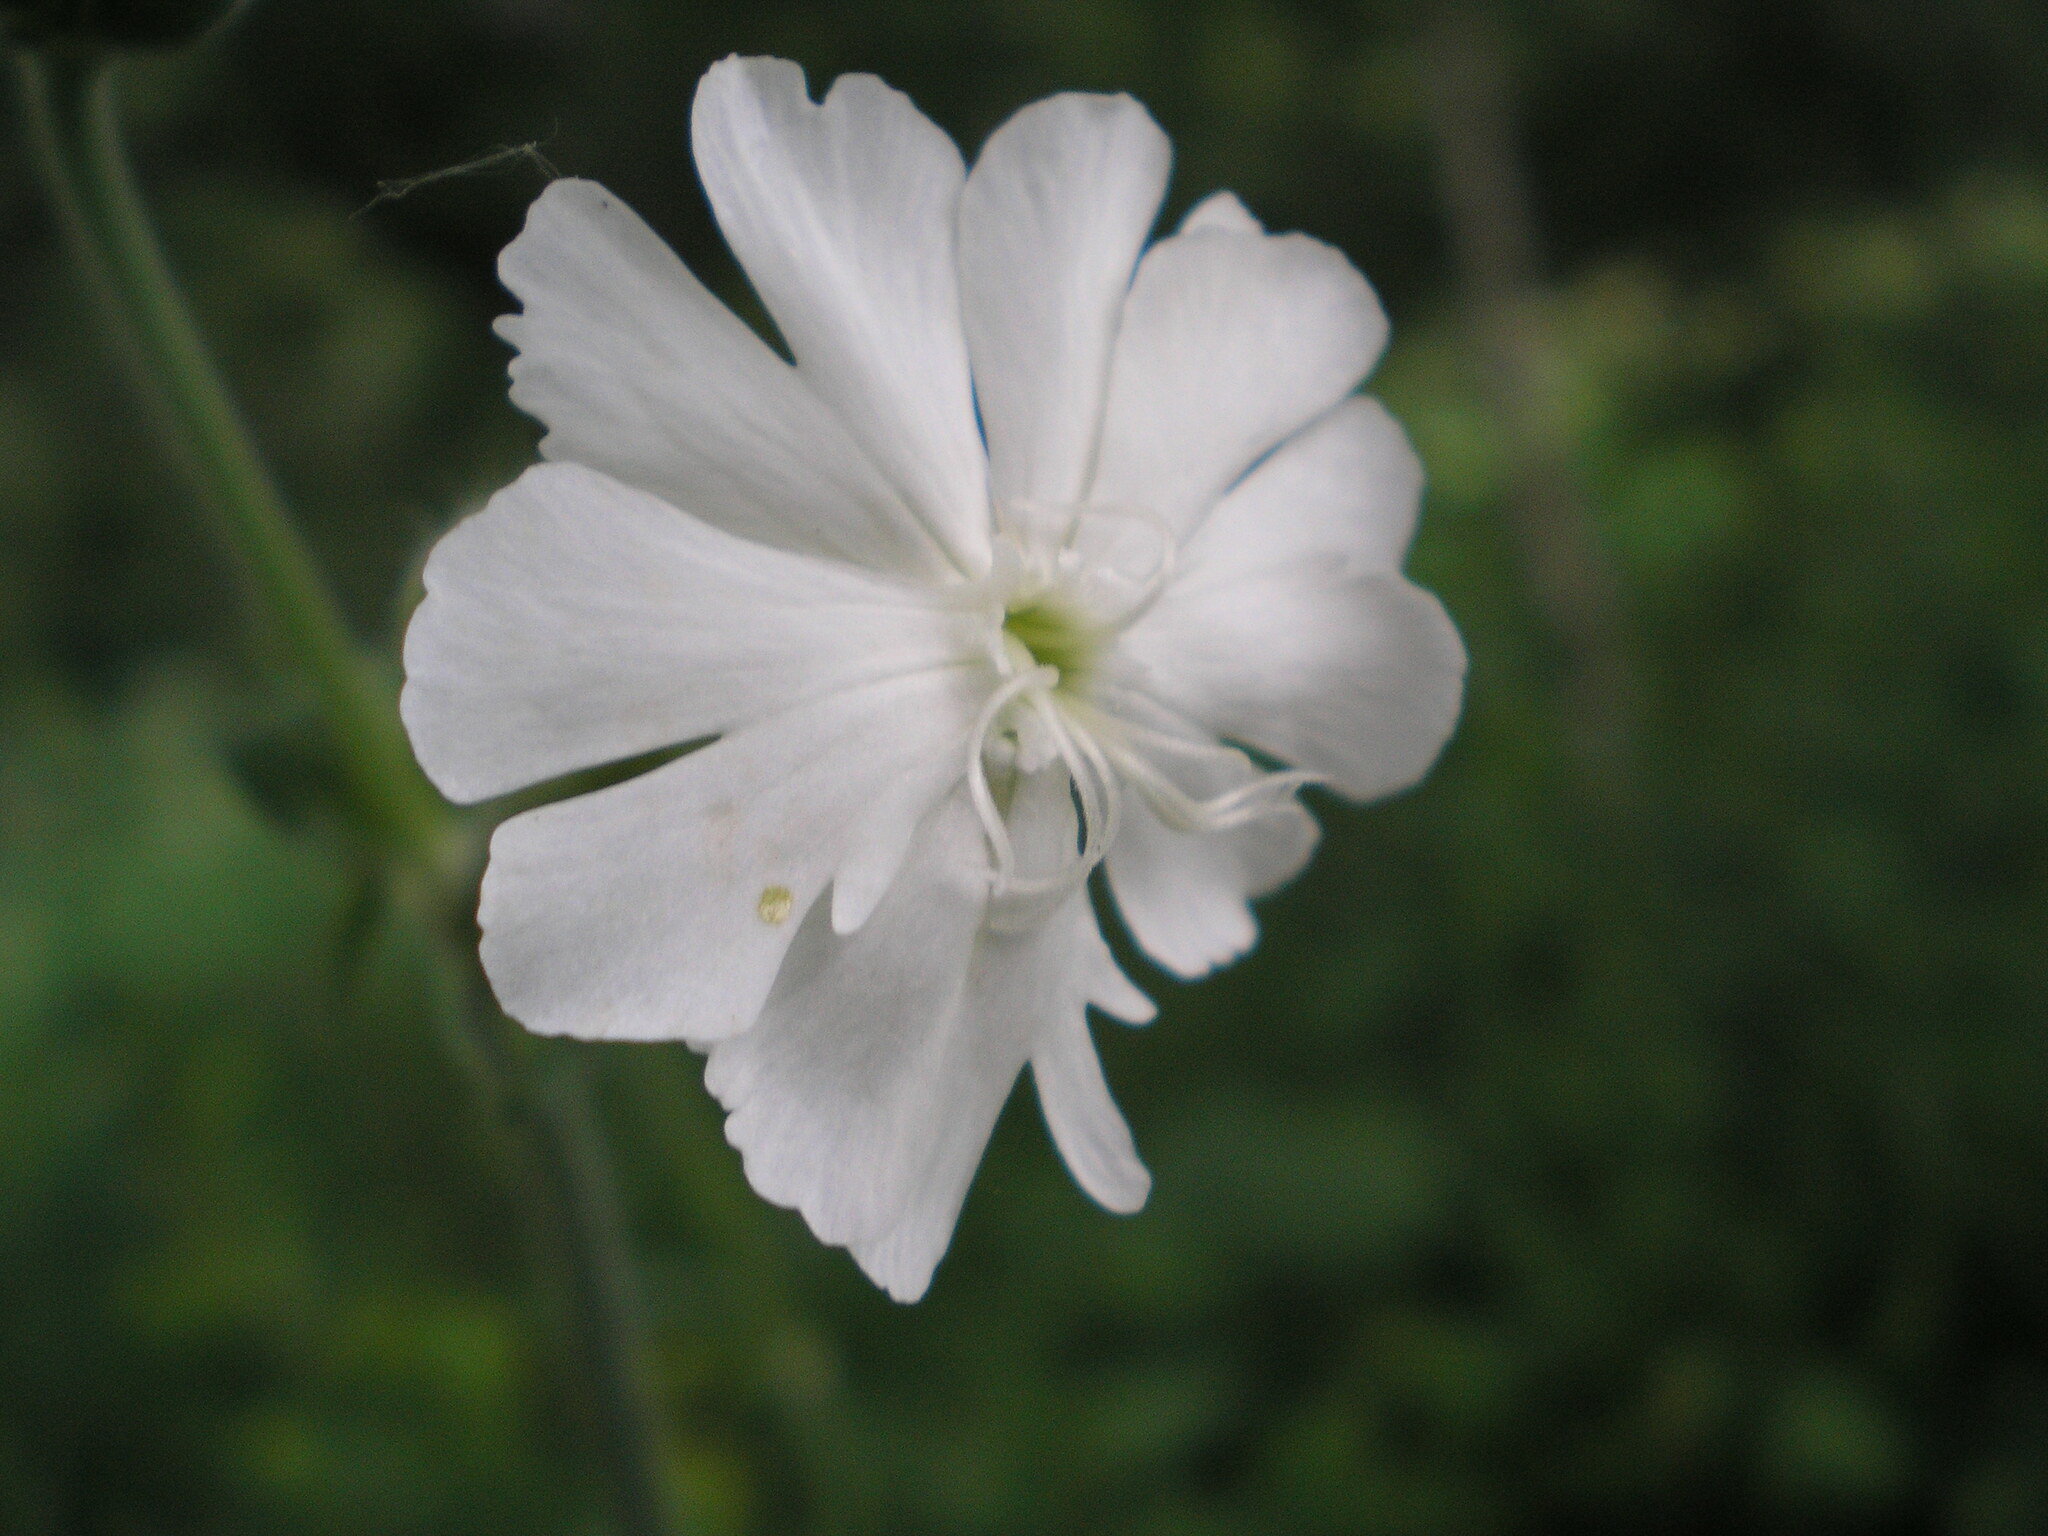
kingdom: Plantae
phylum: Tracheophyta
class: Magnoliopsida
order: Caryophyllales
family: Caryophyllaceae
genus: Silene
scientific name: Silene latifolia
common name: White campion
